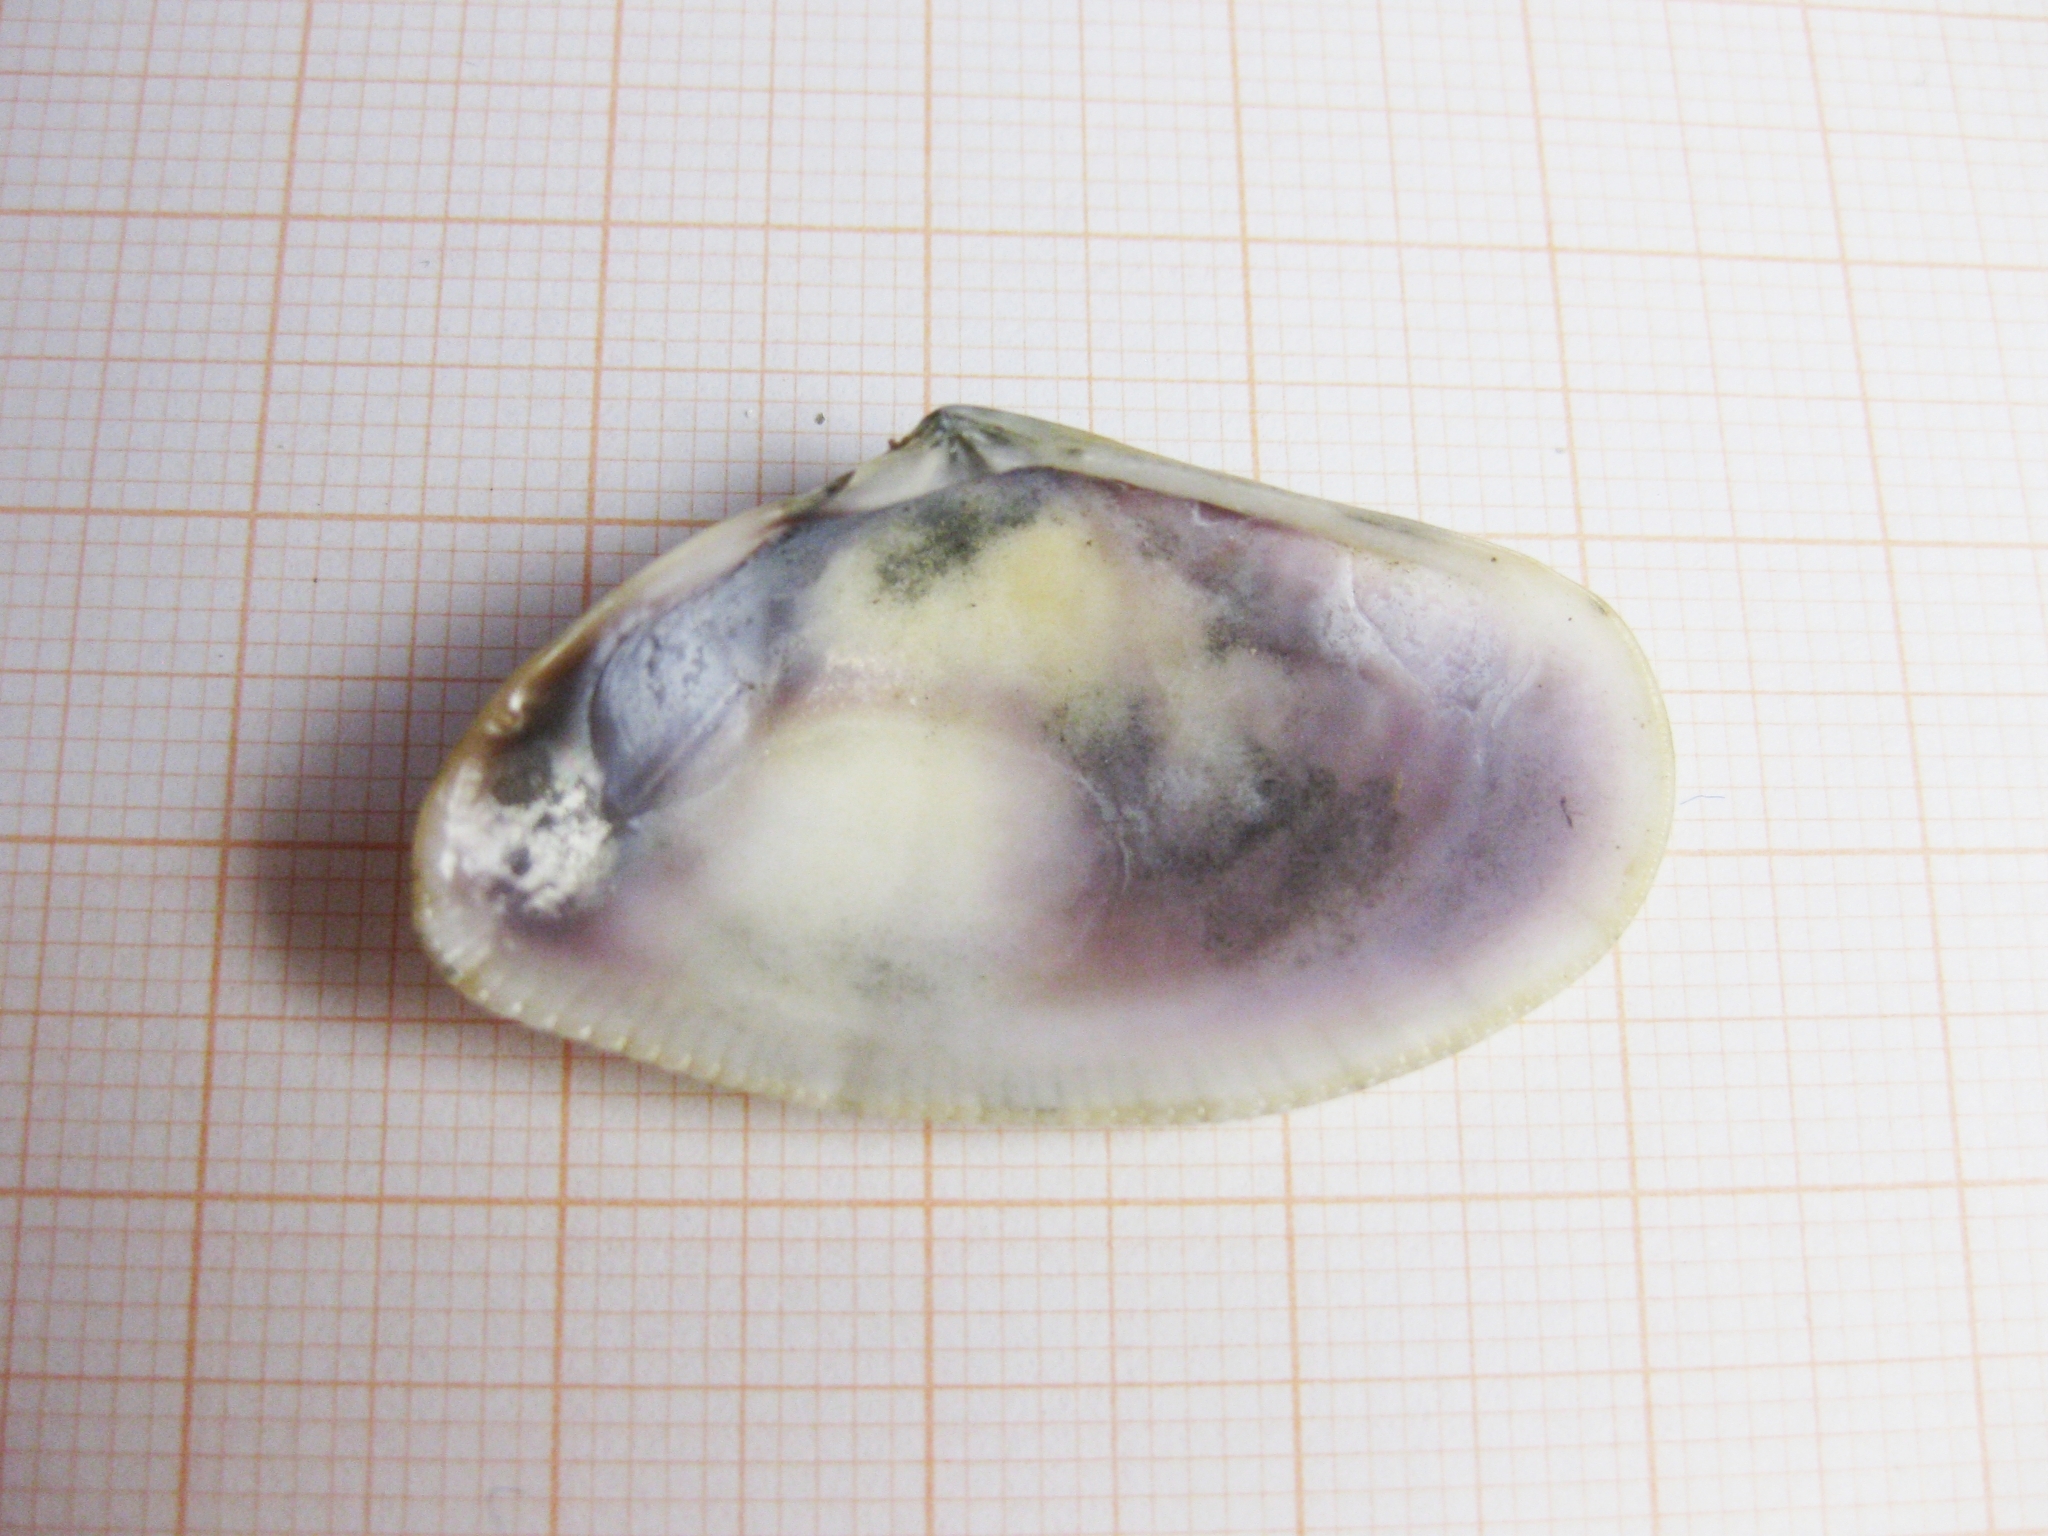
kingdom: Animalia
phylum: Mollusca
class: Bivalvia
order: Cardiida
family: Donacidae
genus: Donax
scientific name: Donax trunculus
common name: Truncate donax
